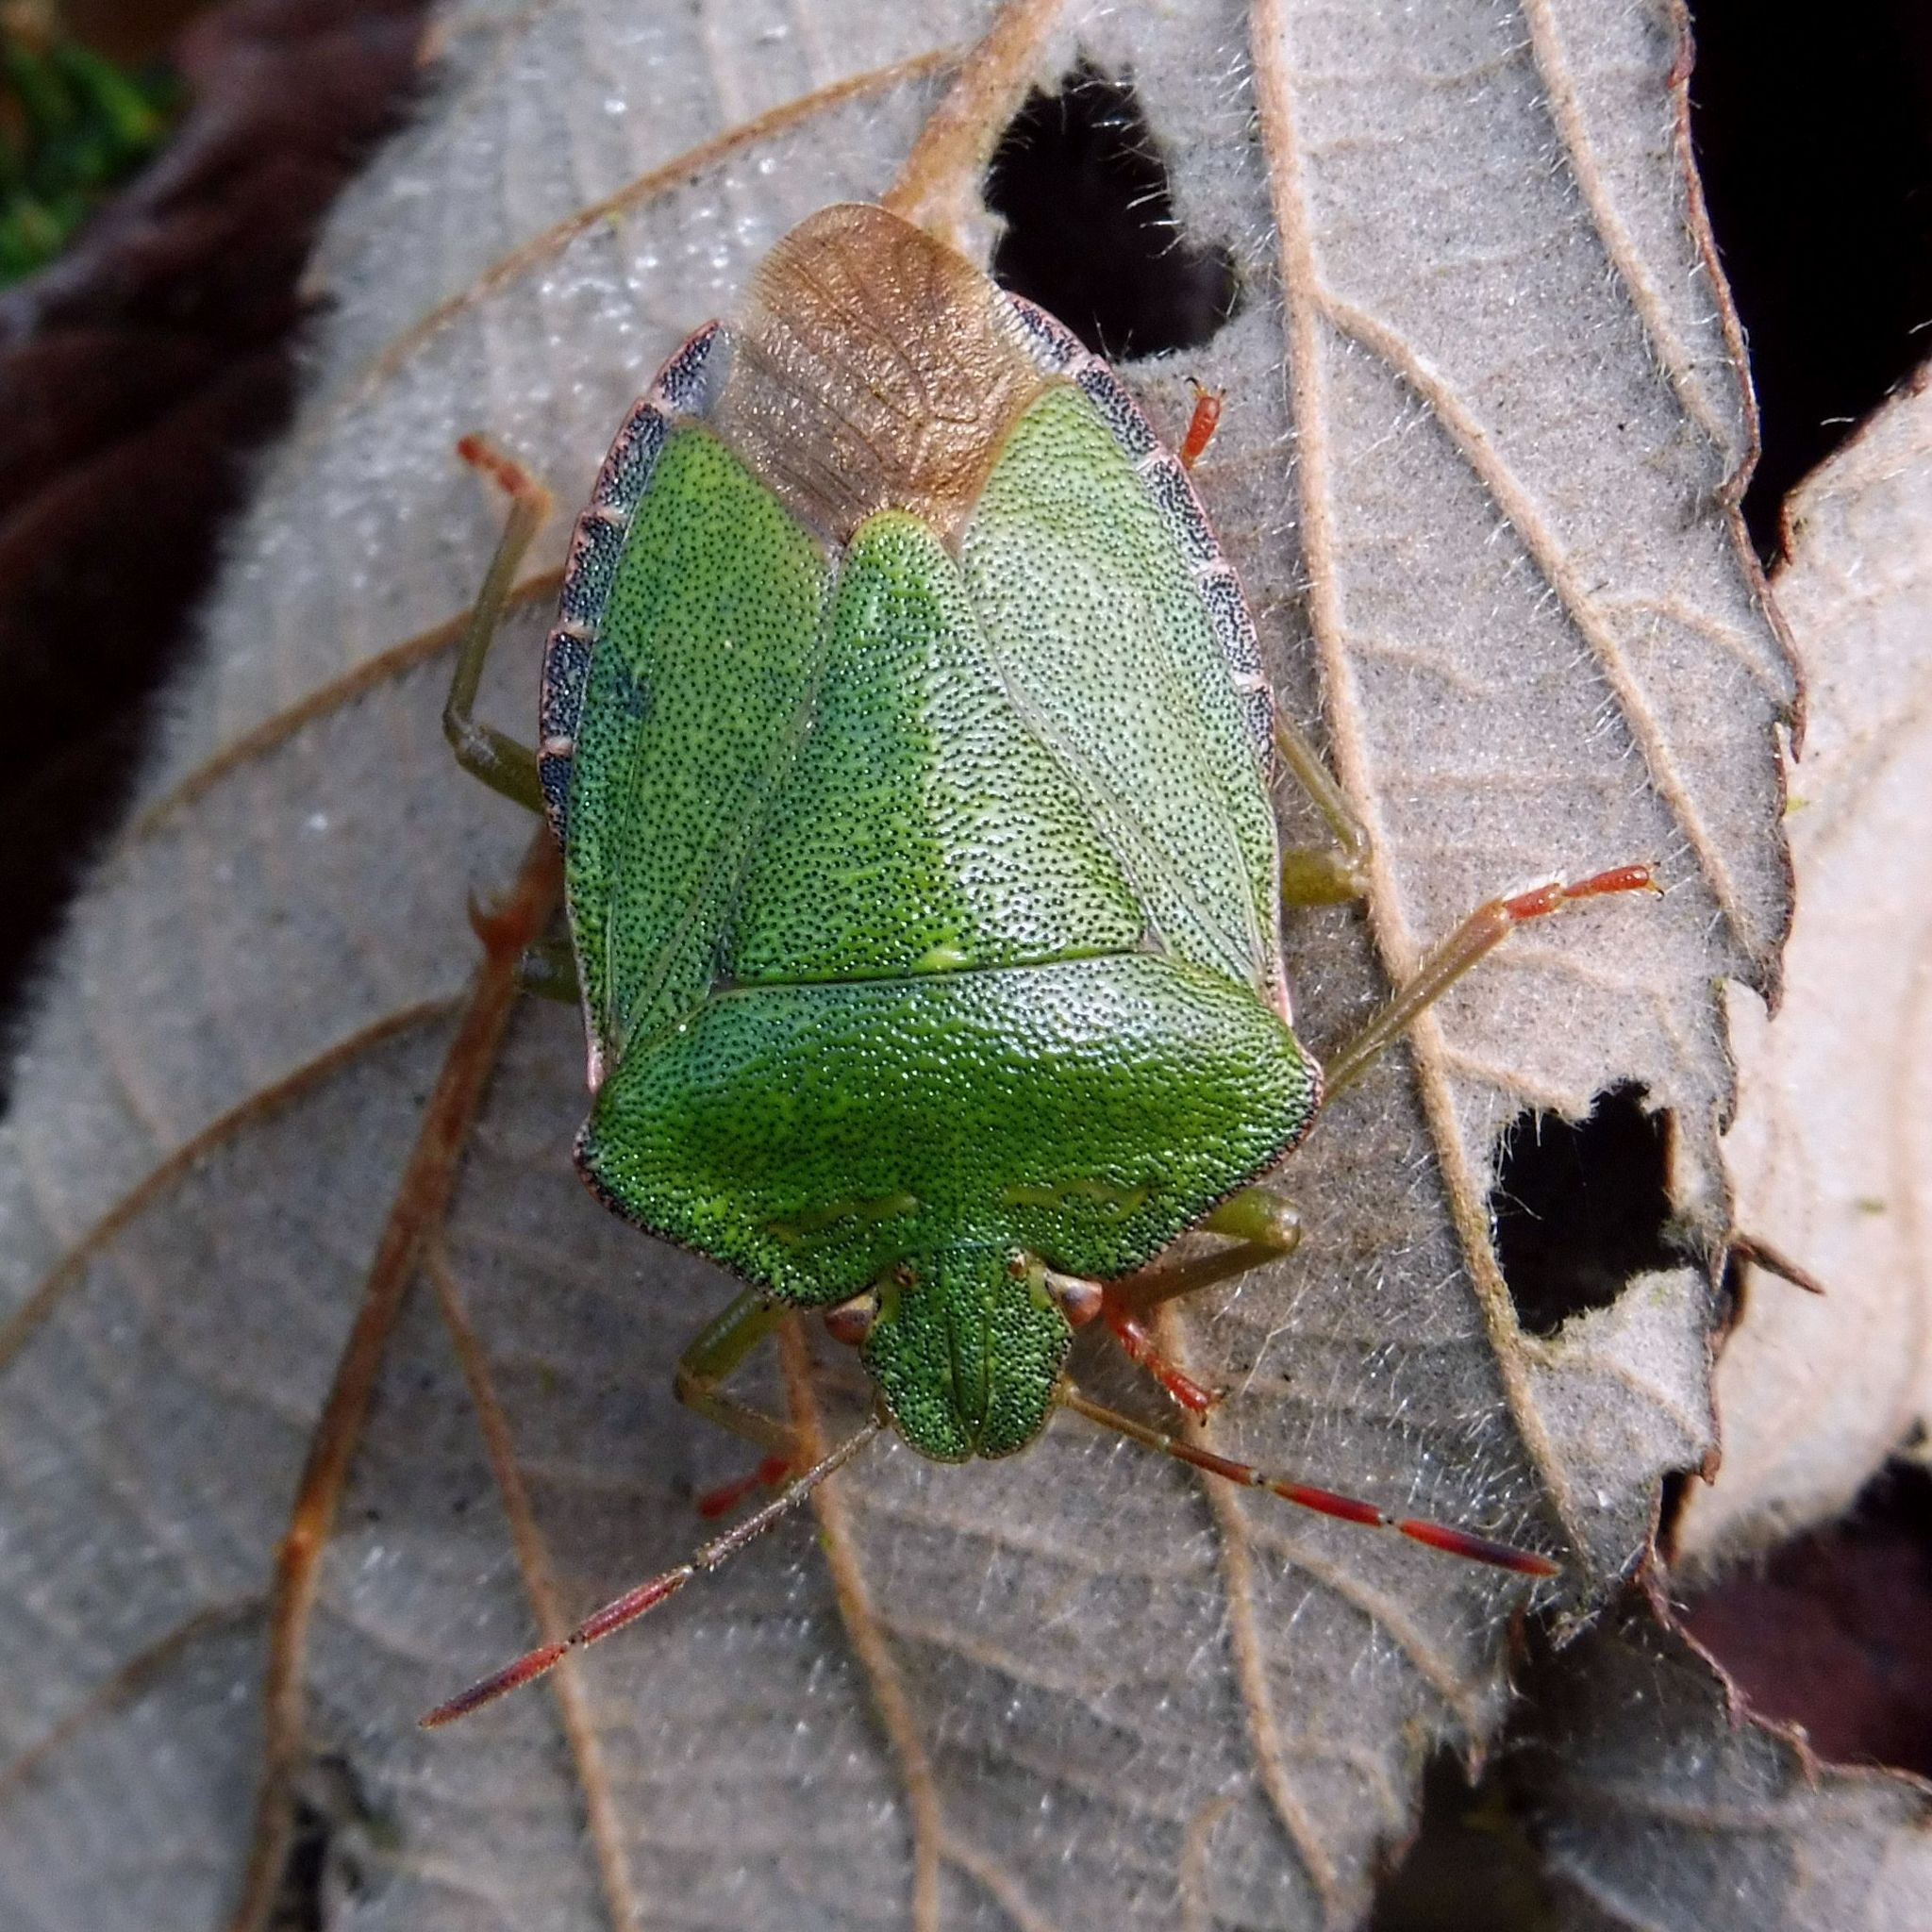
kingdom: Animalia
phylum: Arthropoda
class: Insecta
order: Hemiptera
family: Pentatomidae
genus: Palomena
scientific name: Palomena prasina
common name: Green shieldbug
